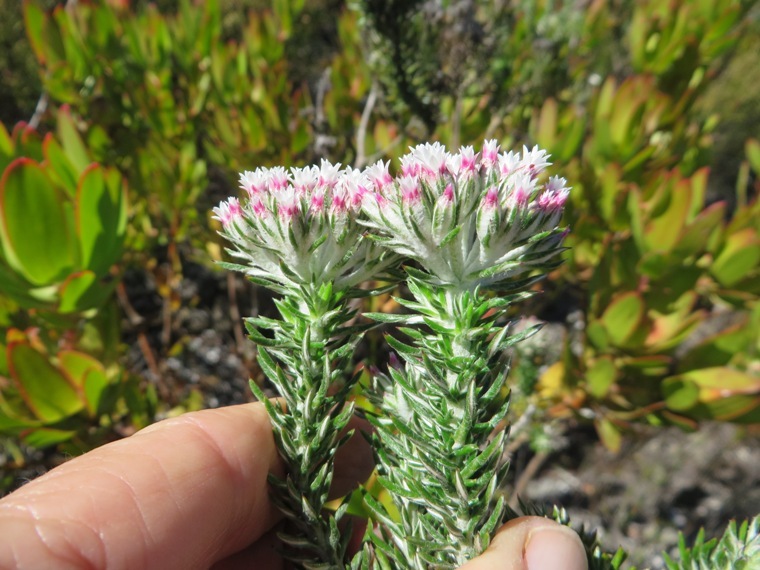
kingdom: Plantae
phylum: Tracheophyta
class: Magnoliopsida
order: Asterales
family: Asteraceae
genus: Metalasia
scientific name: Metalasia lichtensteinii
